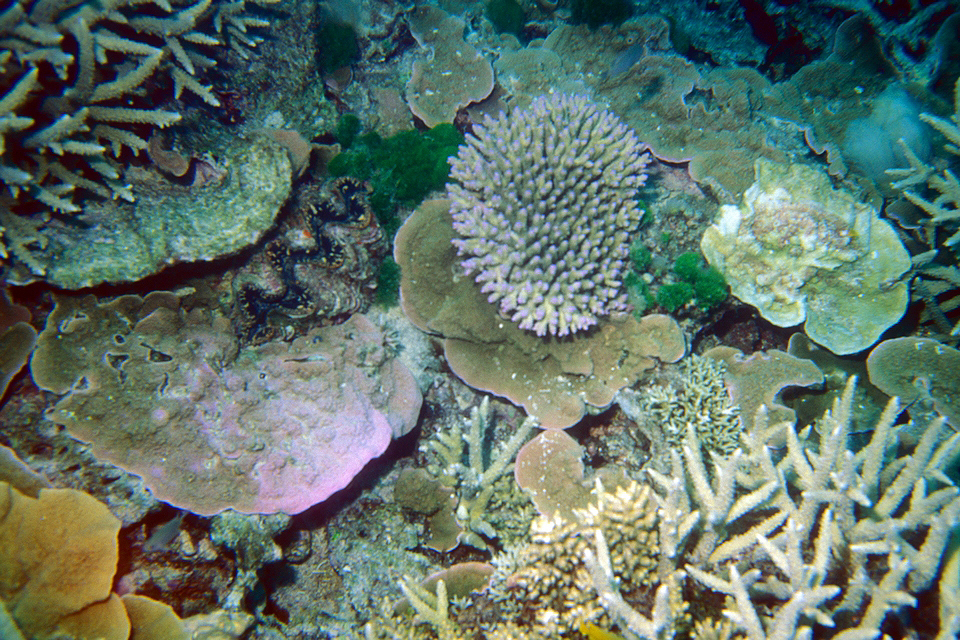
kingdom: Animalia
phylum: Mollusca
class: Bivalvia
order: Cardiida
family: Cardiidae
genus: Tridacna
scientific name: Tridacna squamosa
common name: Fluted clam
